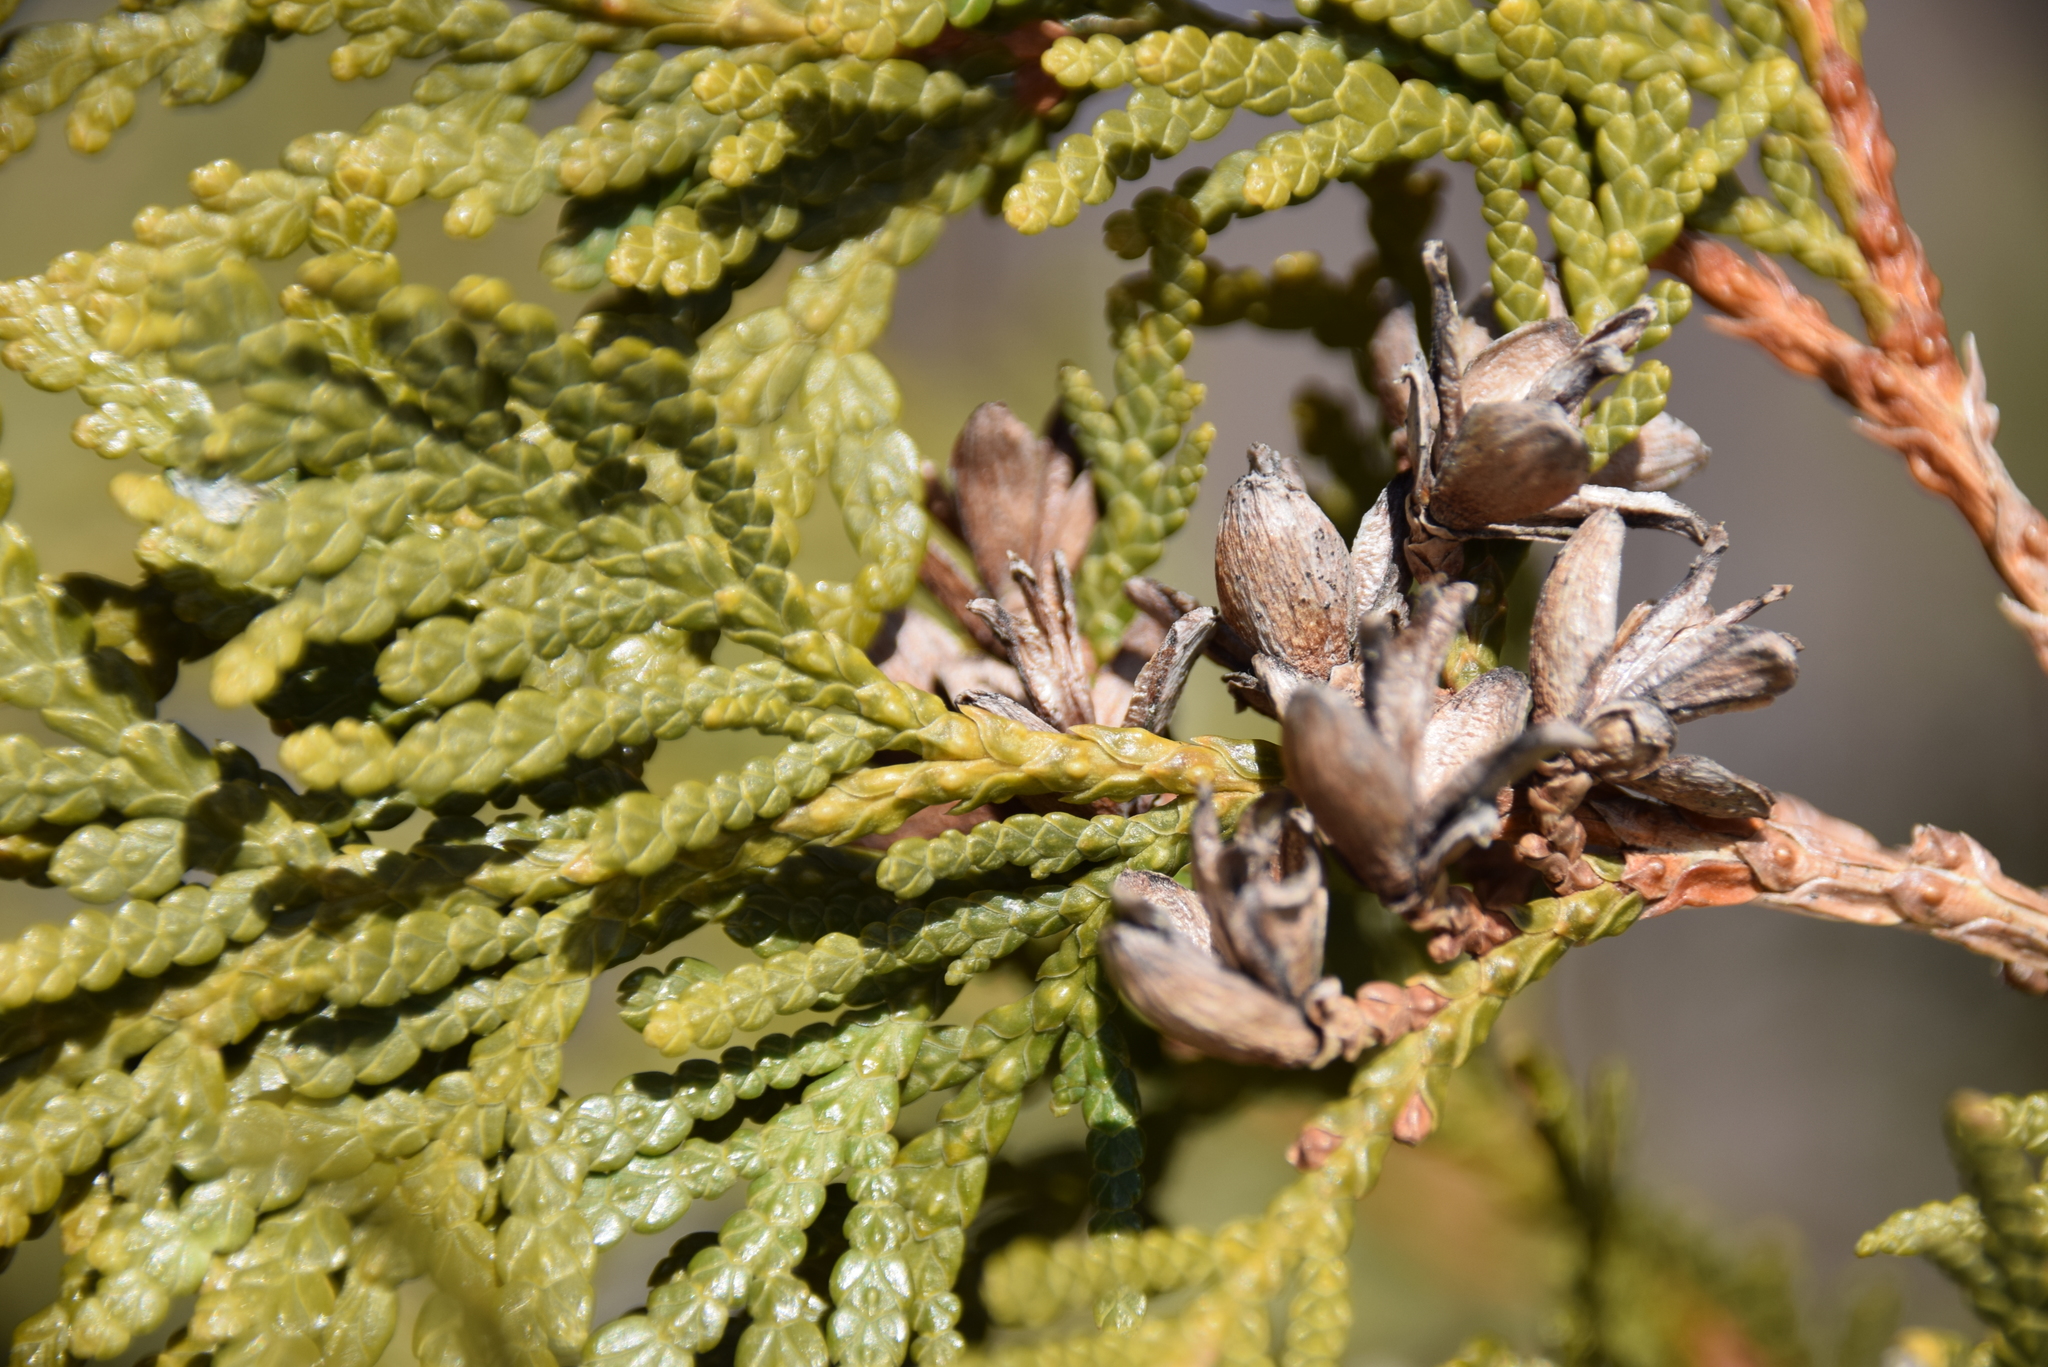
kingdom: Plantae
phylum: Tracheophyta
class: Pinopsida
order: Pinales
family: Cupressaceae
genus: Thuja
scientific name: Thuja occidentalis
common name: Northern white-cedar
